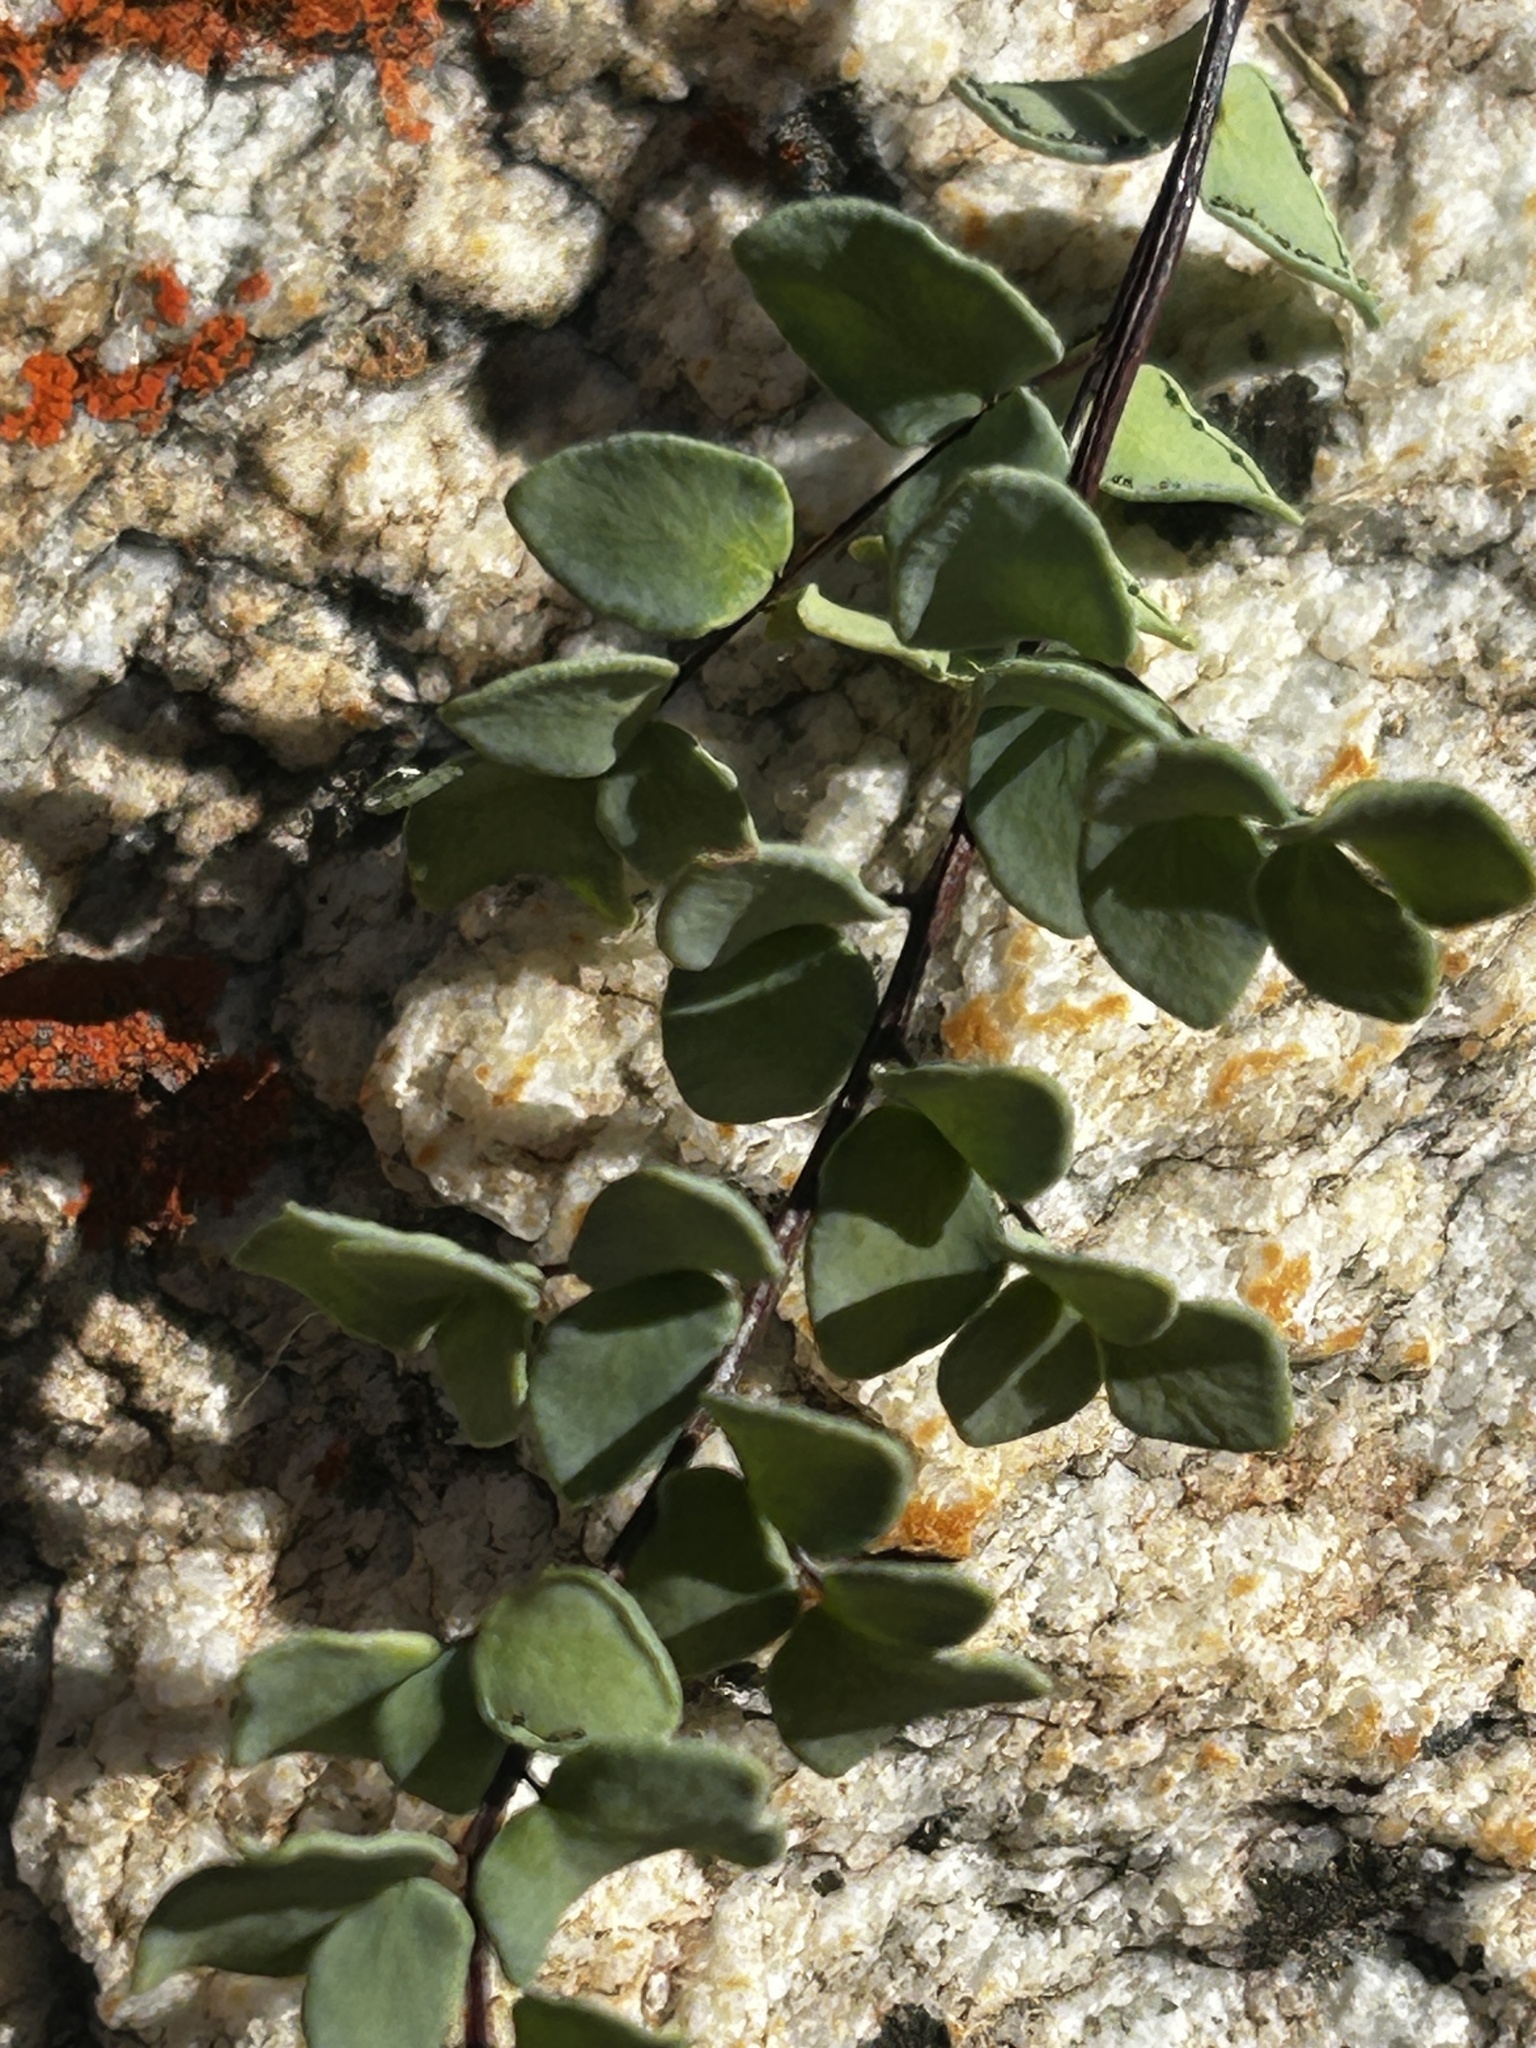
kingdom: Plantae
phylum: Tracheophyta
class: Polypodiopsida
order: Polypodiales
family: Pteridaceae
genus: Pellaea
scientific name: Pellaea calomelanos
